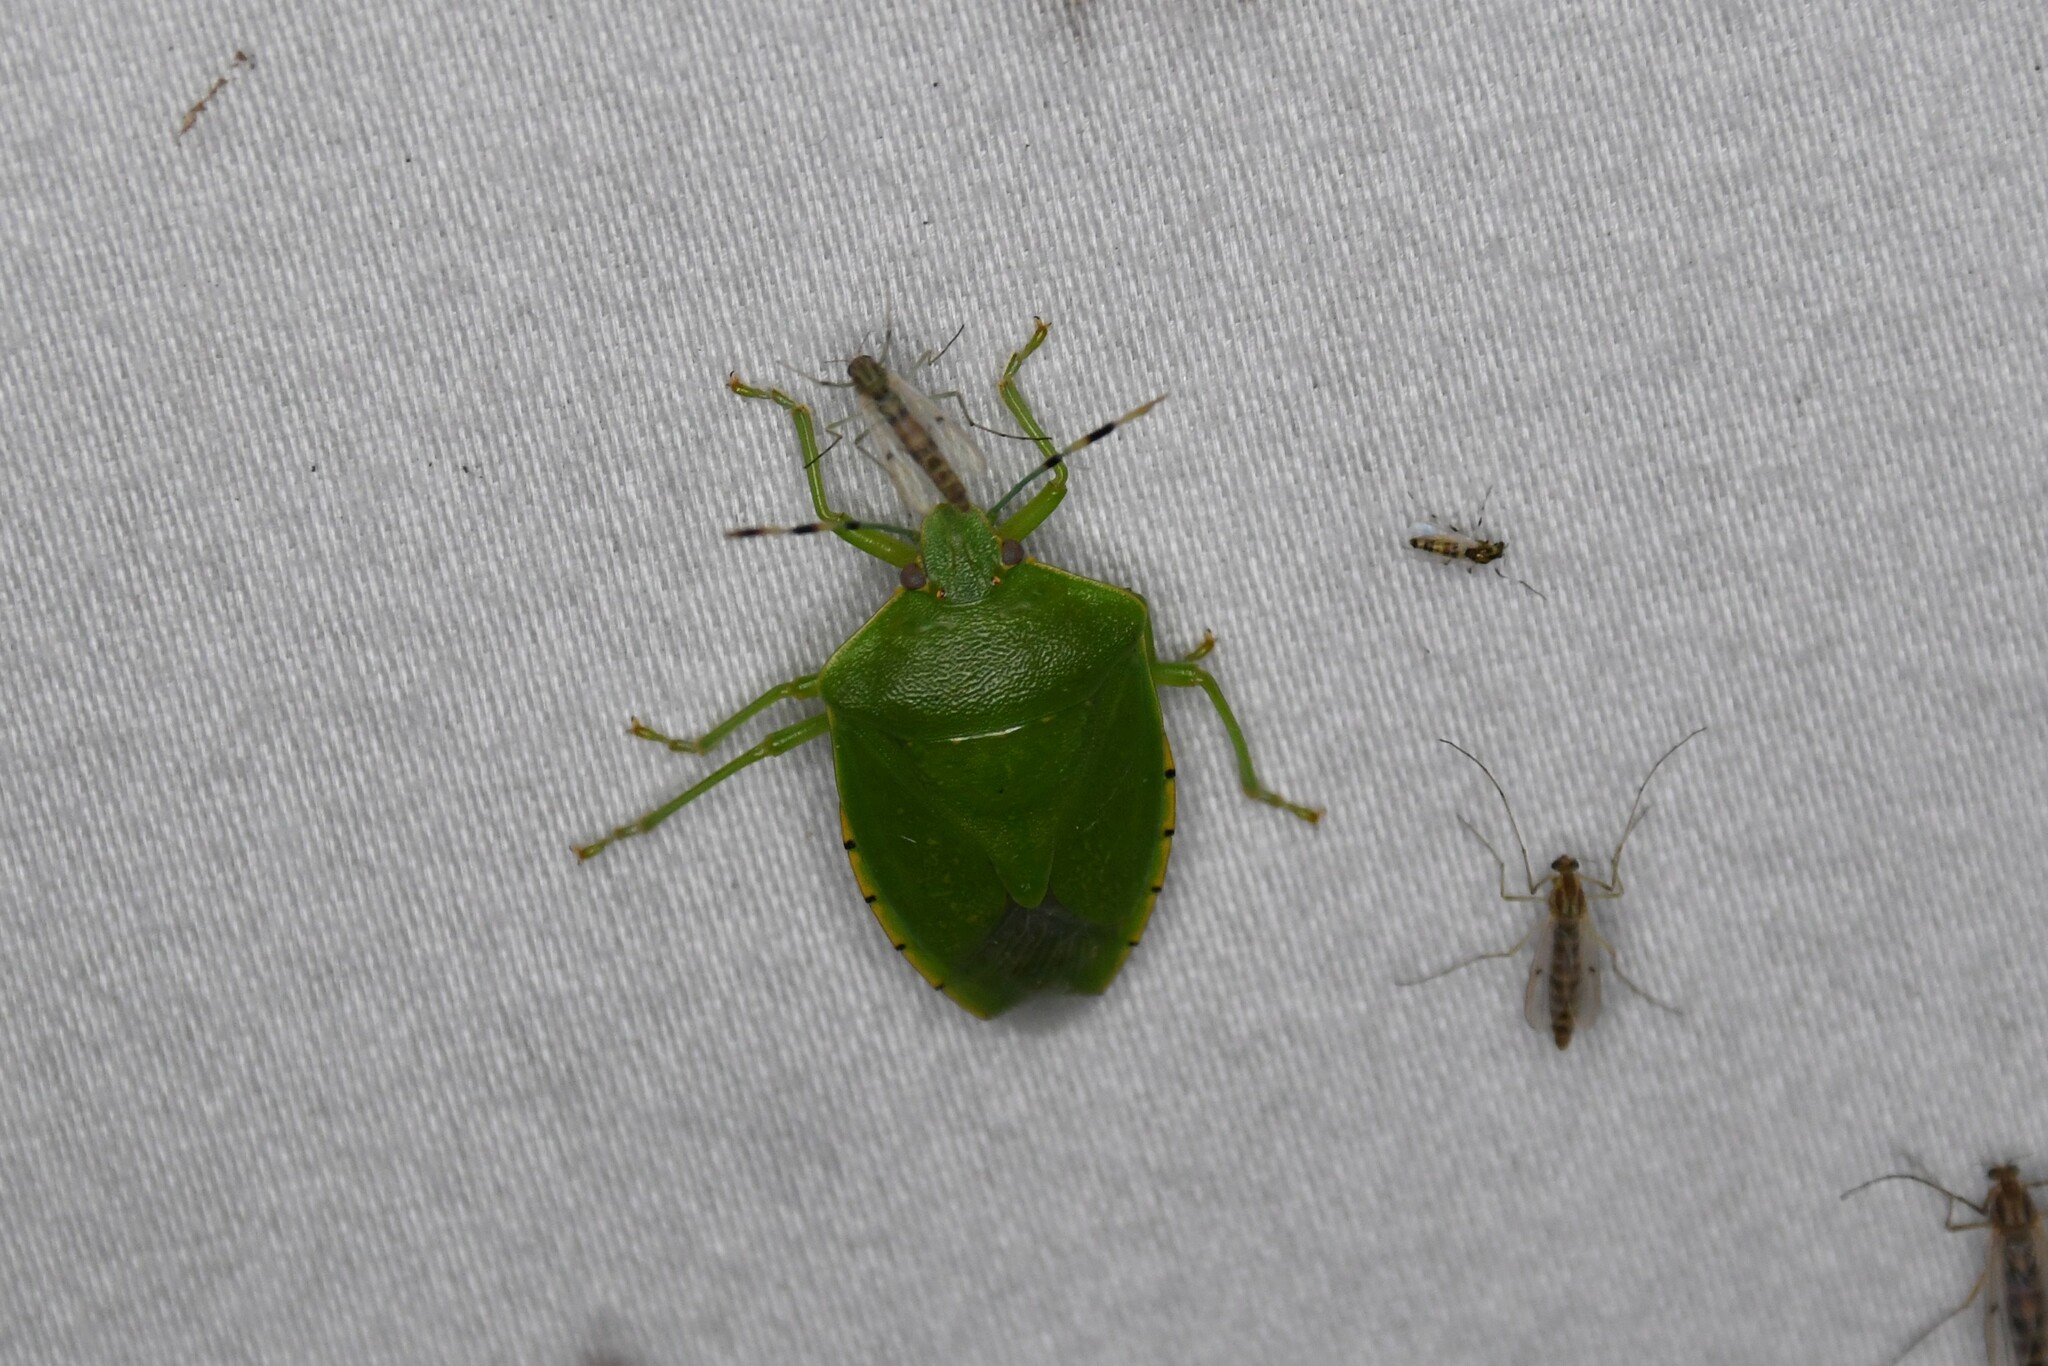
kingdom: Animalia
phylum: Arthropoda
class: Insecta
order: Hemiptera
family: Pentatomidae
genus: Chinavia
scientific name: Chinavia hilaris
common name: Green stink bug
